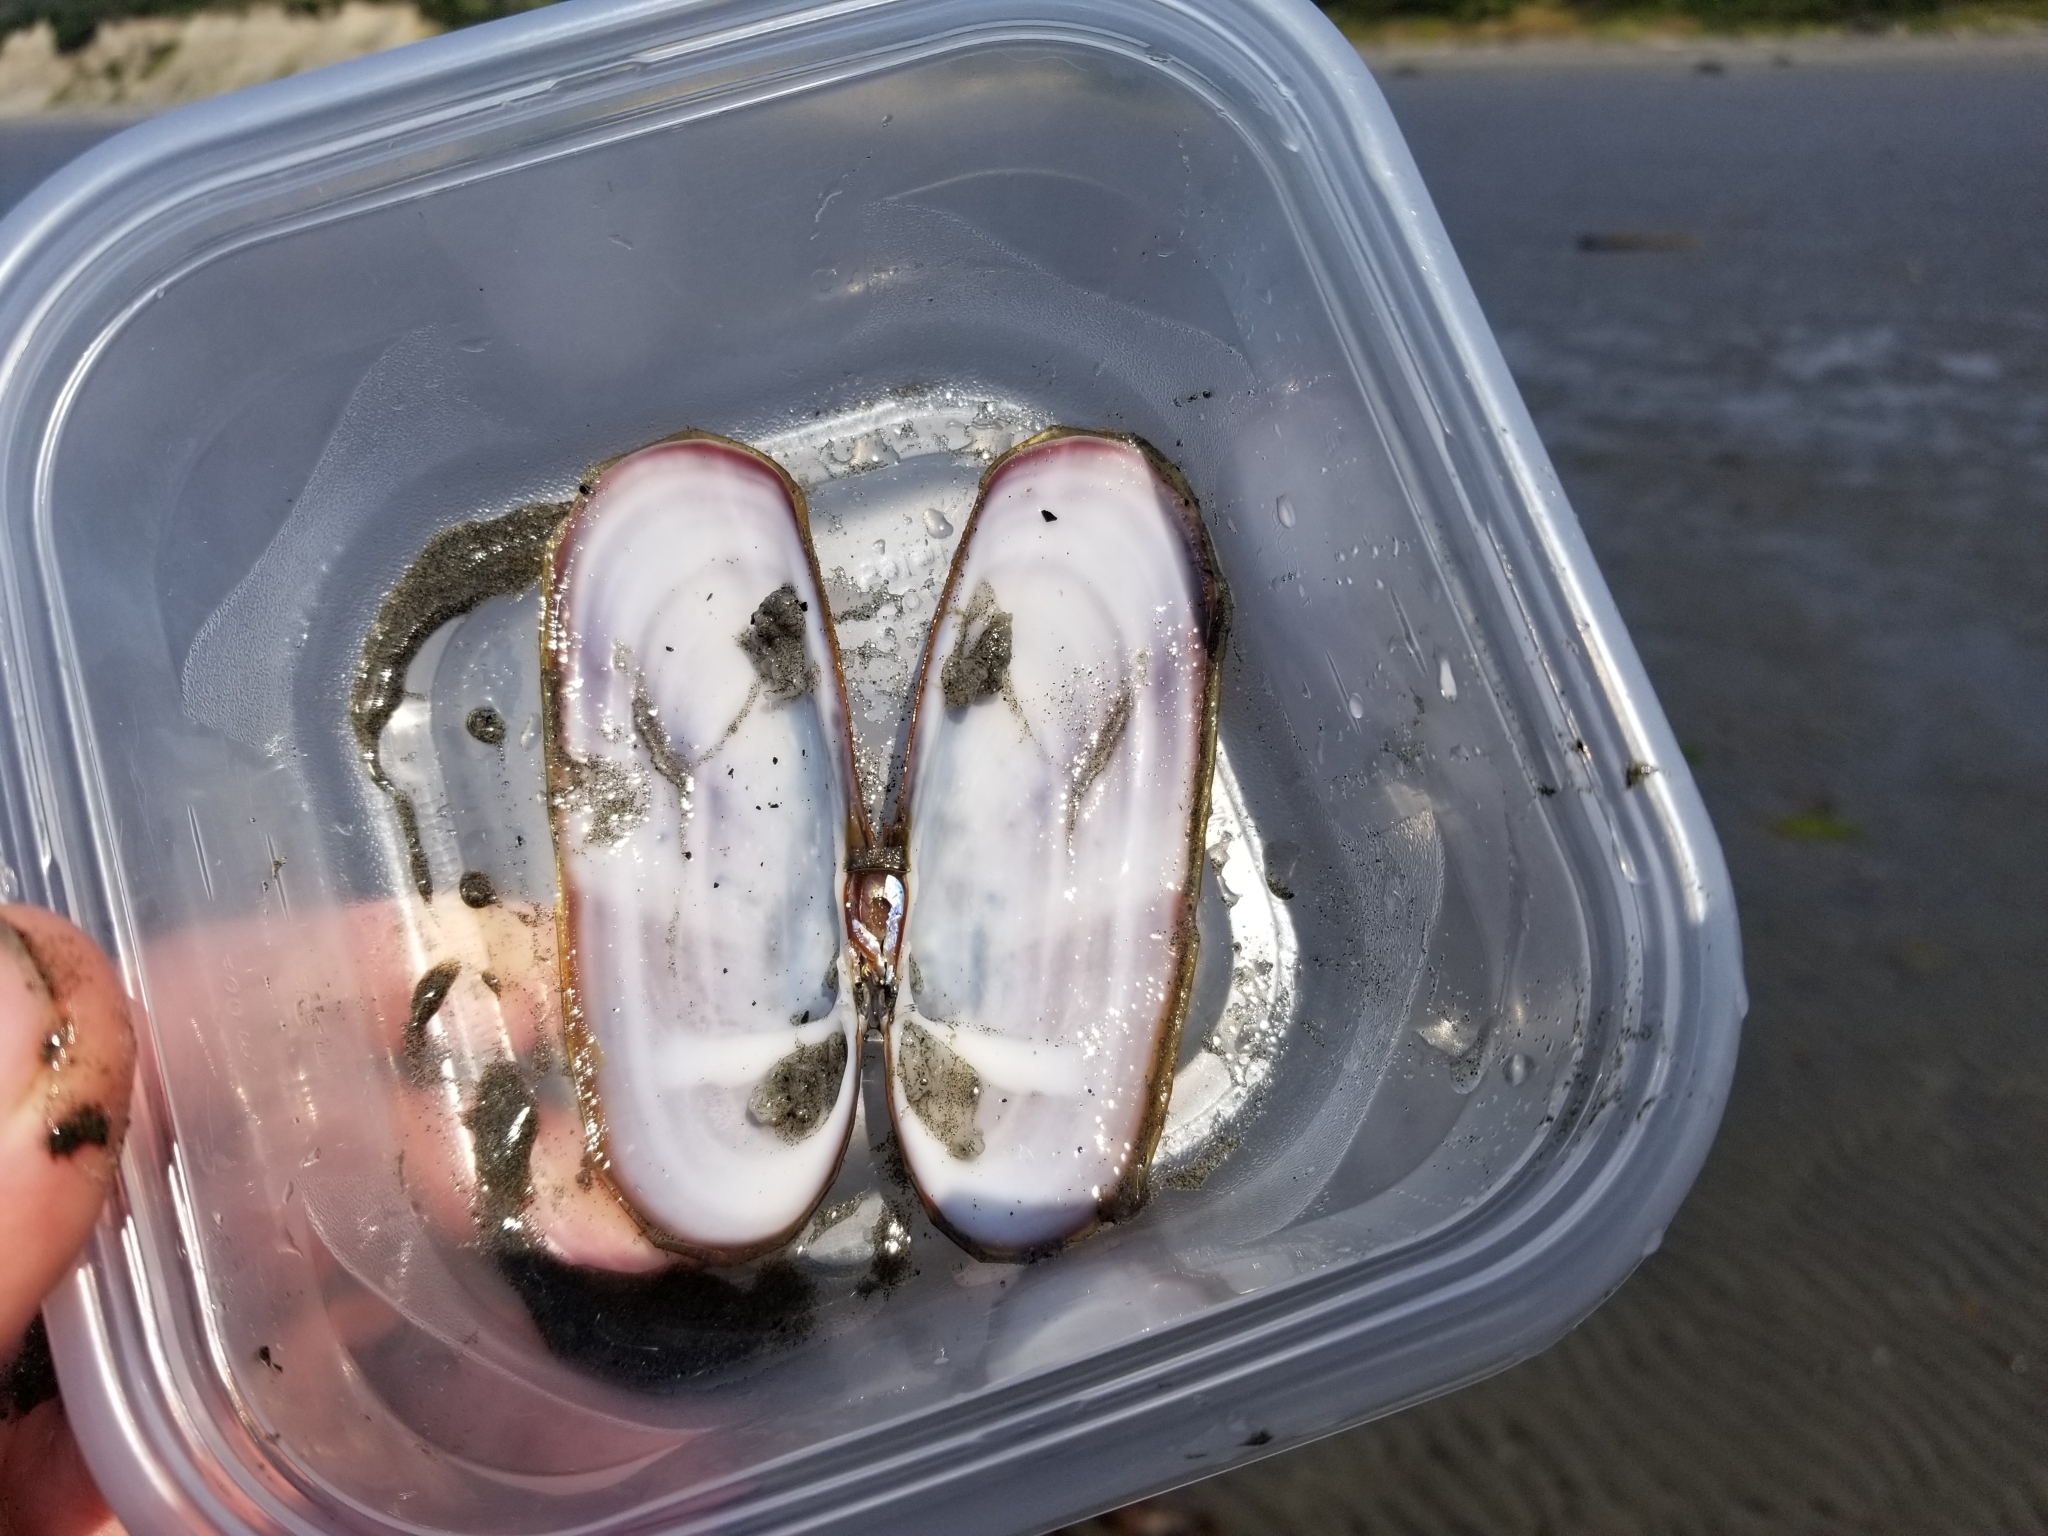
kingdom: Animalia
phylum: Mollusca
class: Bivalvia
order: Adapedonta
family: Pharidae
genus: Siliqua
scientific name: Siliqua patula
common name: Pacific razor clam
